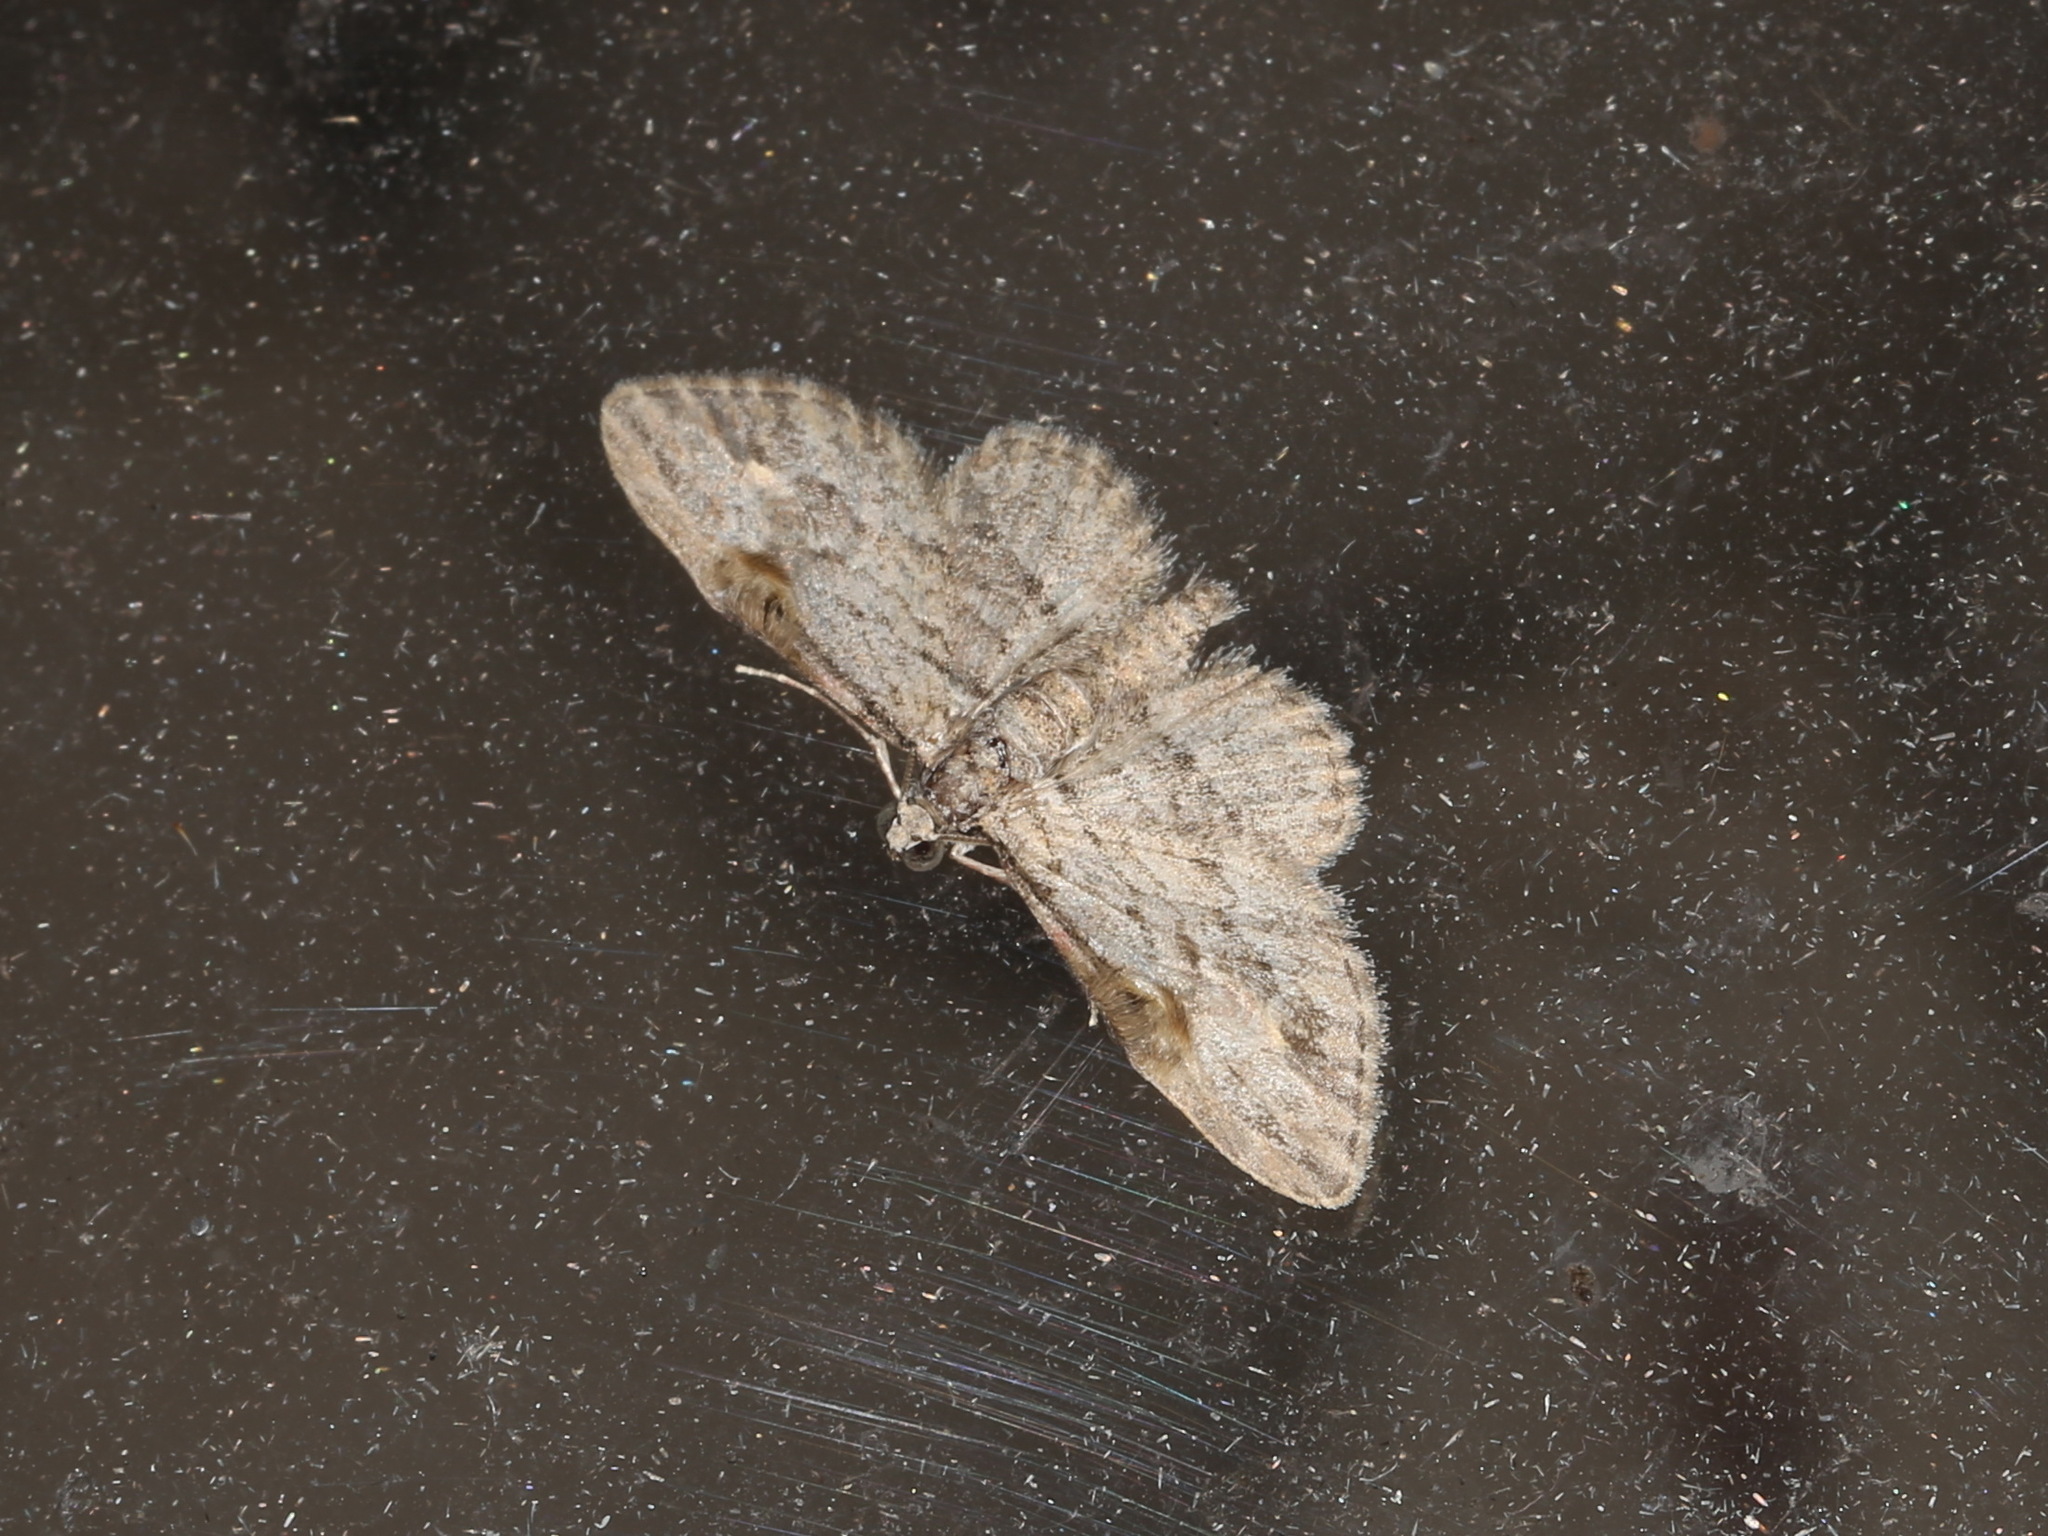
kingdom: Animalia
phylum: Arthropoda
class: Insecta
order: Lepidoptera
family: Geometridae
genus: Chloroclystis
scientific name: Chloroclystis insigillata
